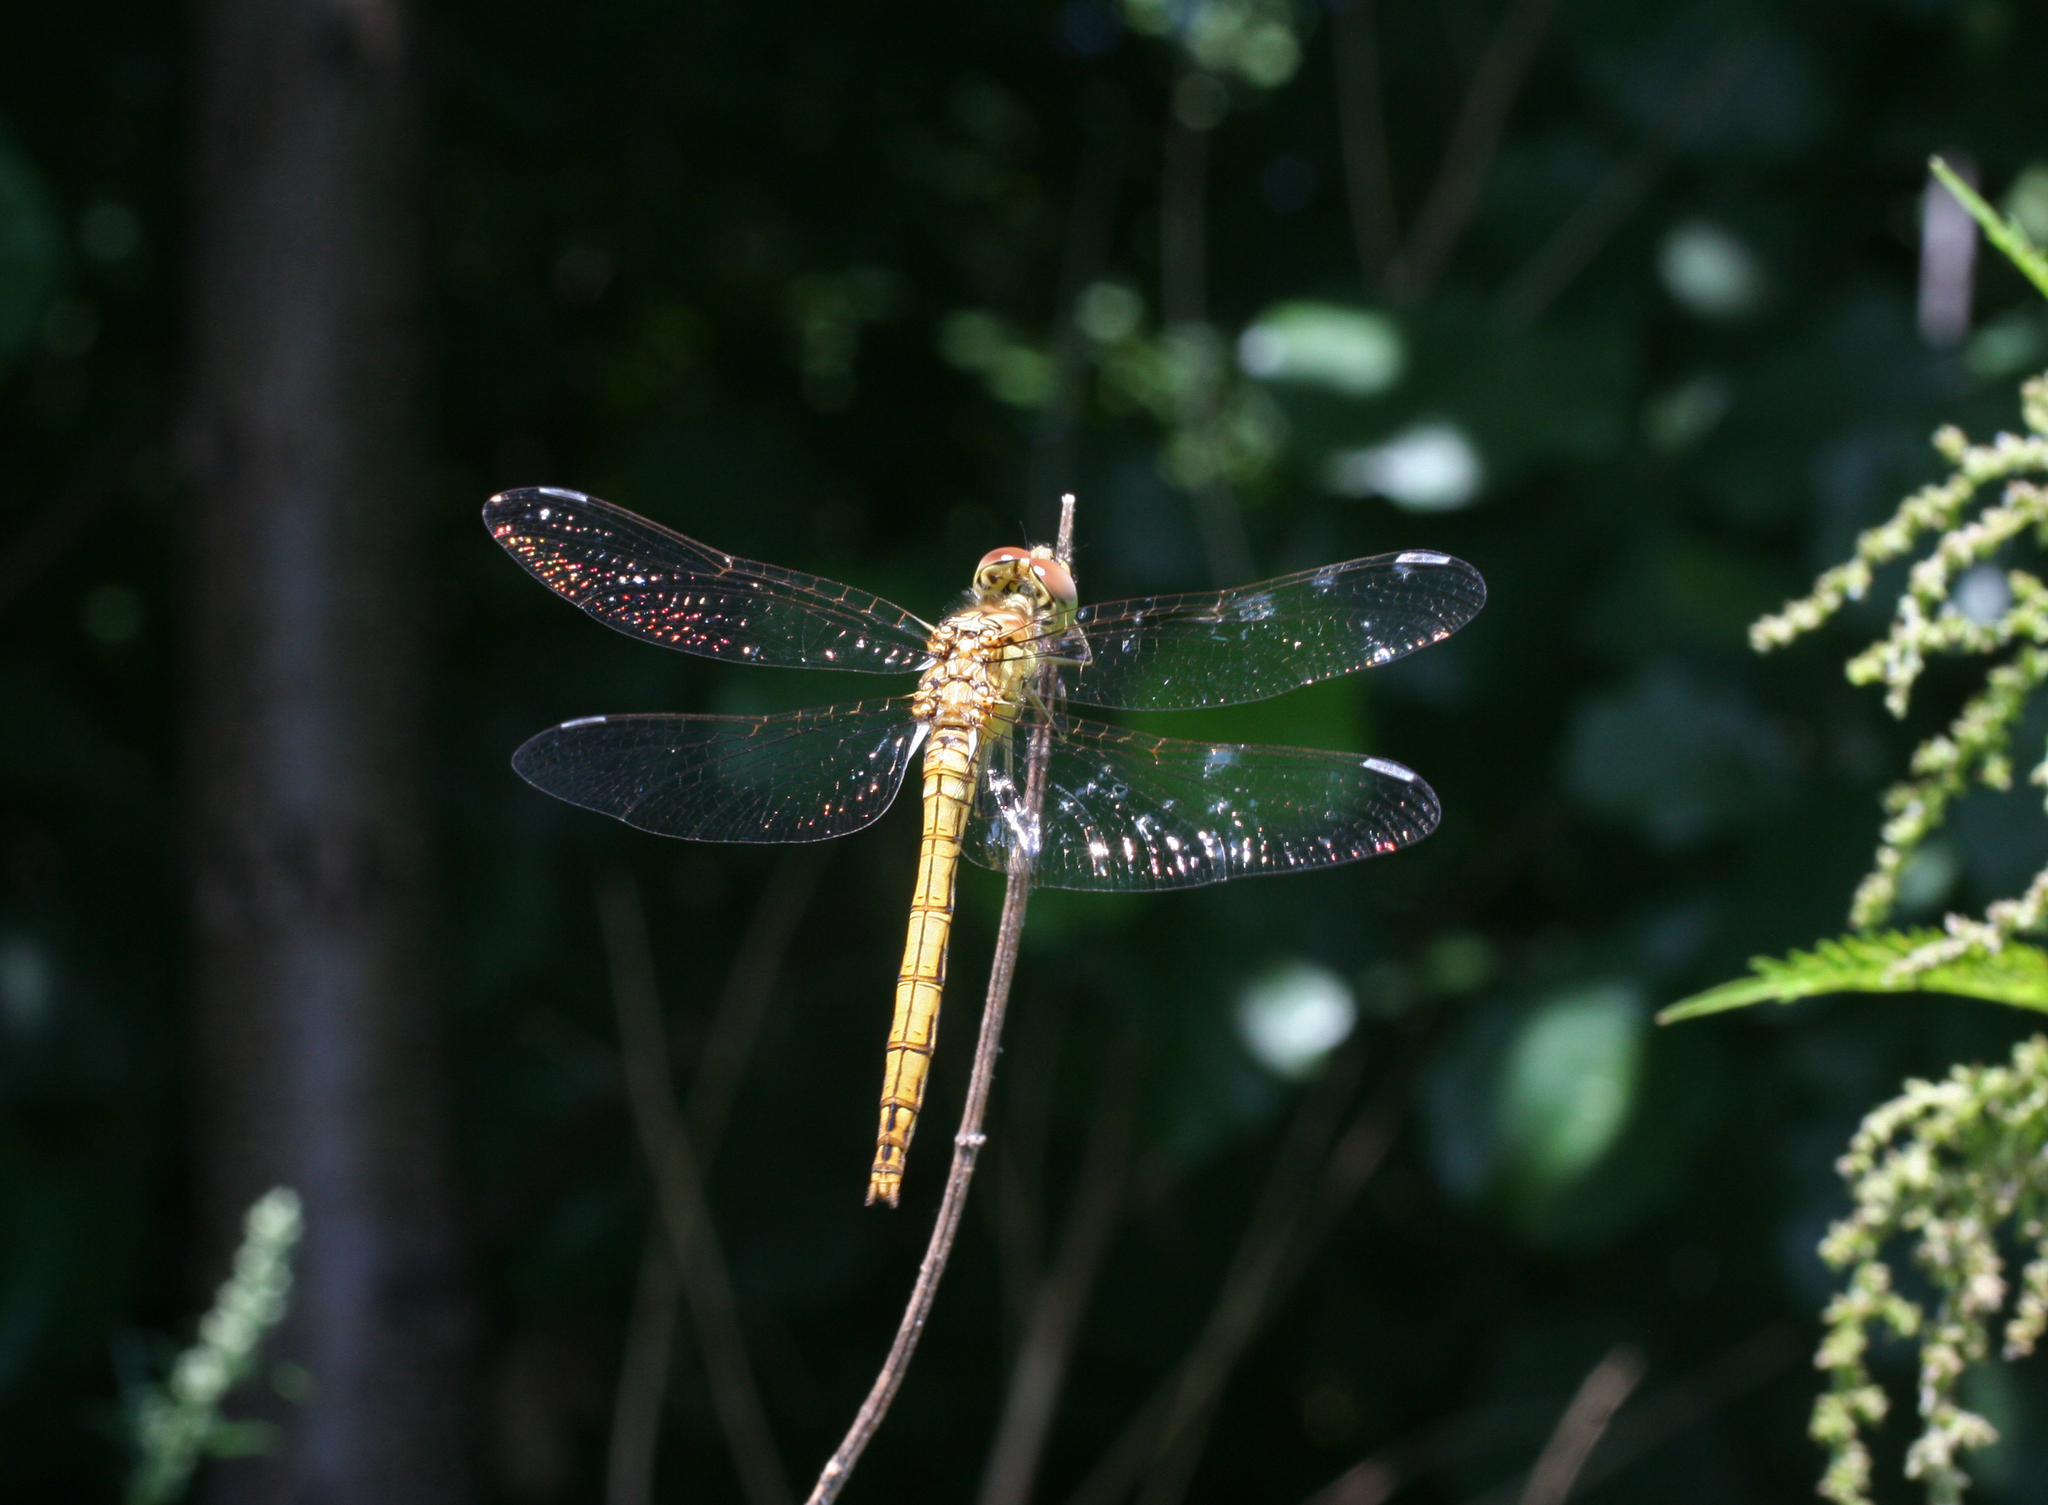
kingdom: Animalia
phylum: Arthropoda
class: Insecta
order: Odonata
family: Libellulidae
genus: Sympetrum
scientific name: Sympetrum vulgatum
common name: Vagrant darter
